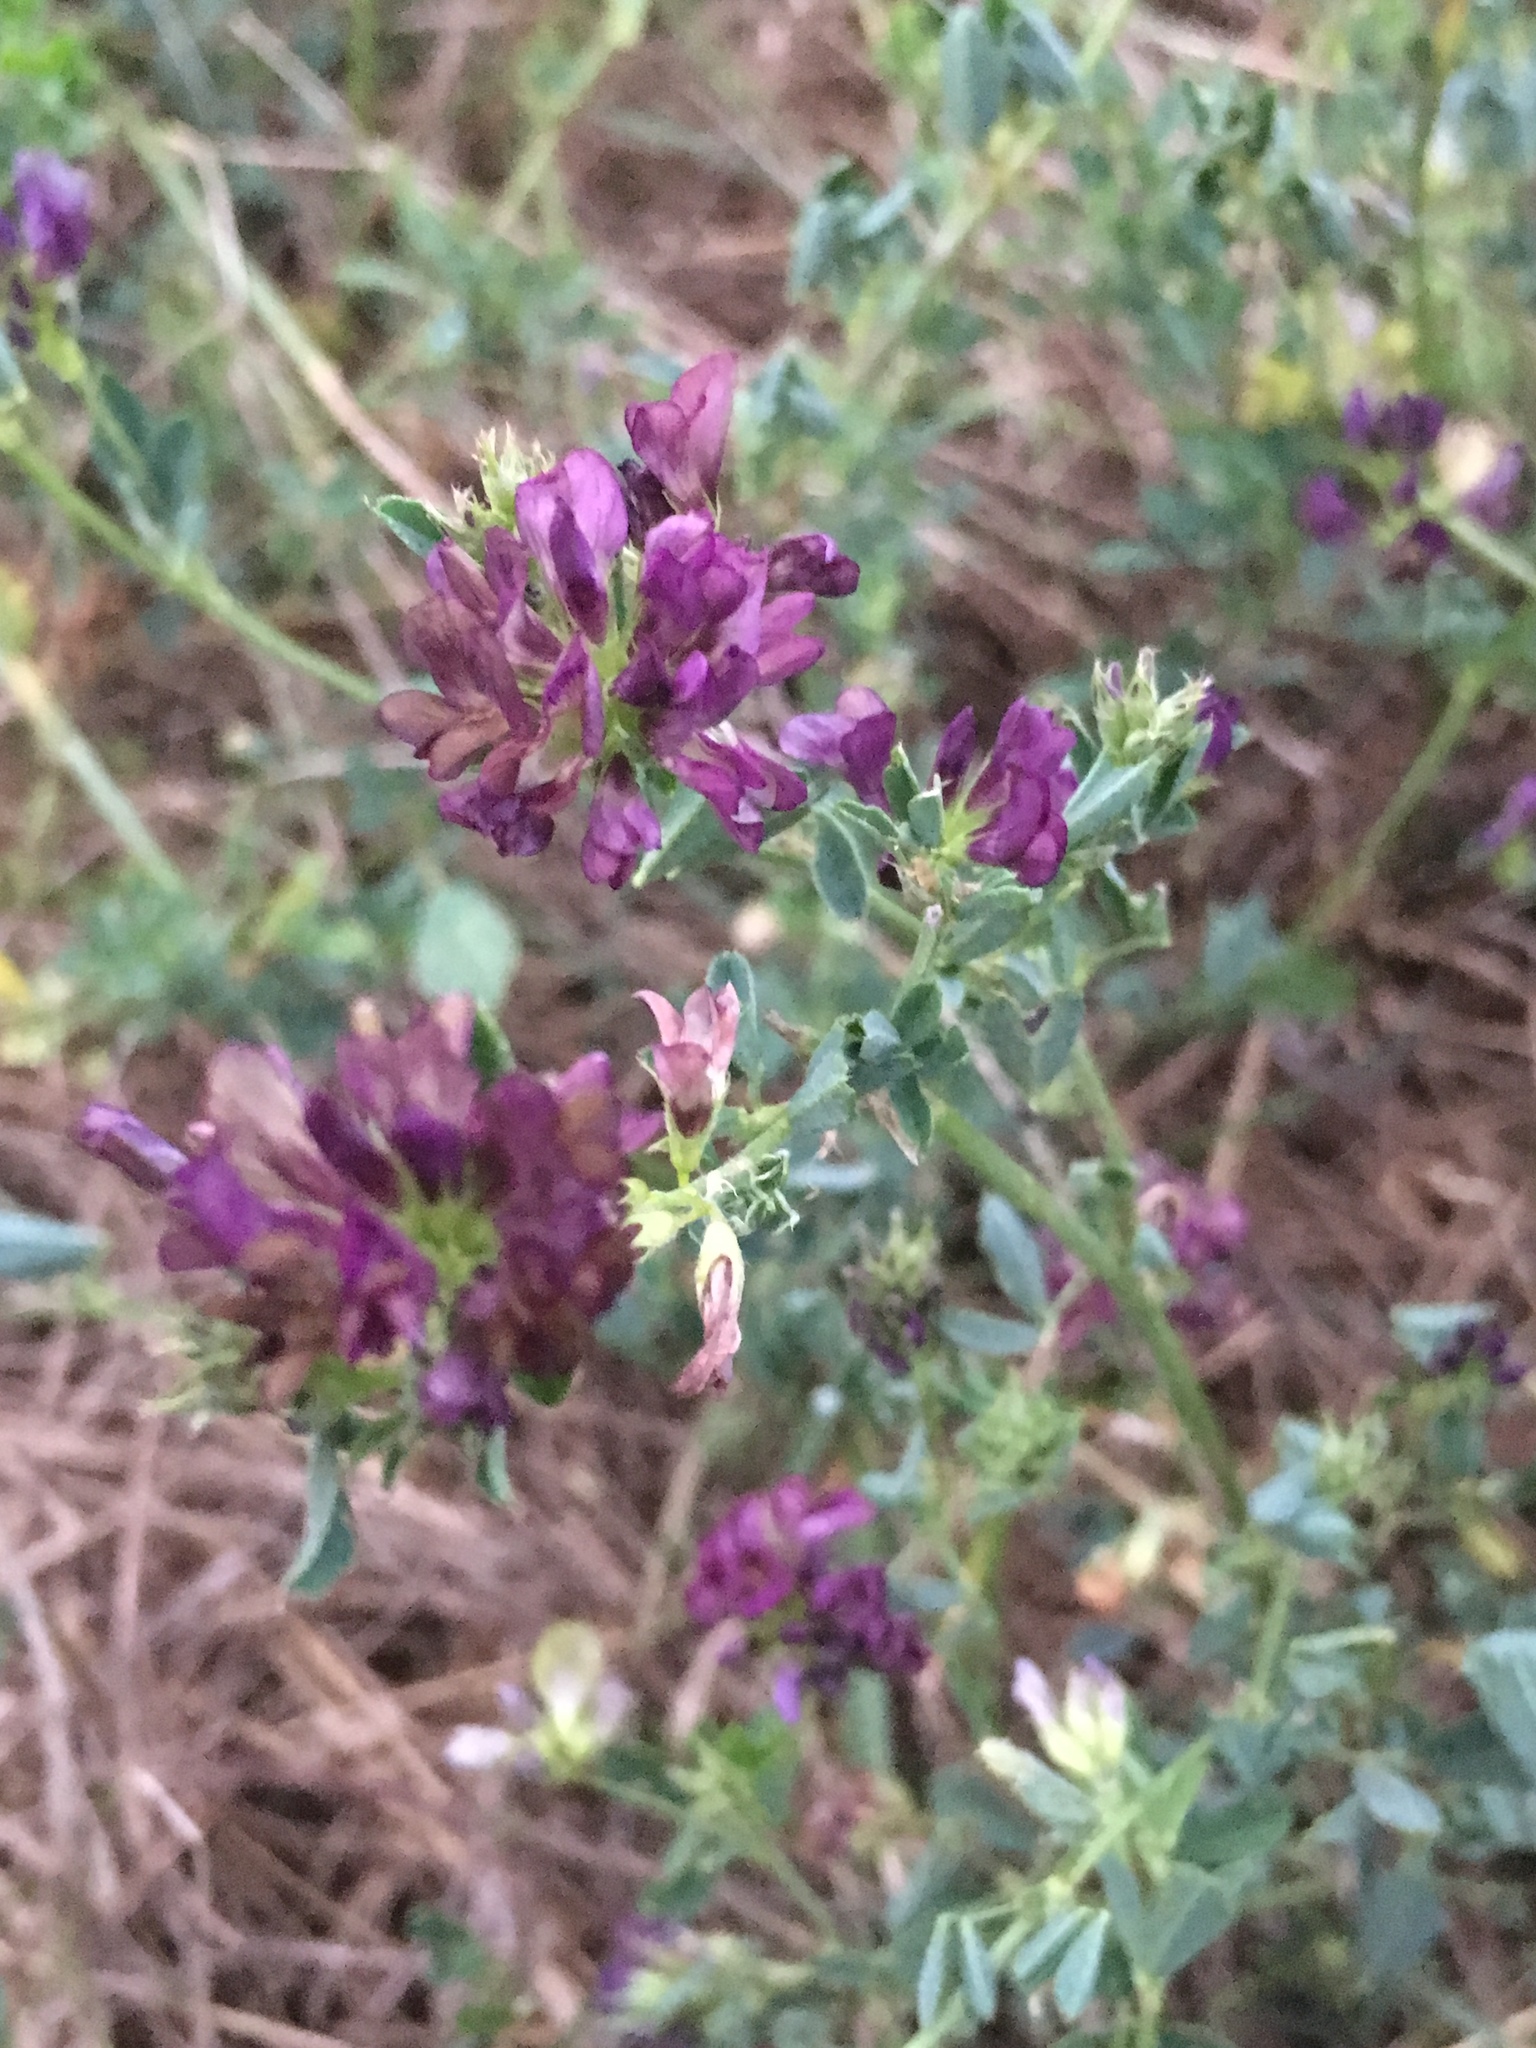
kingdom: Plantae
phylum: Tracheophyta
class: Magnoliopsida
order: Fabales
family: Fabaceae
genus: Medicago
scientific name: Medicago varia
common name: Sand lucerne
